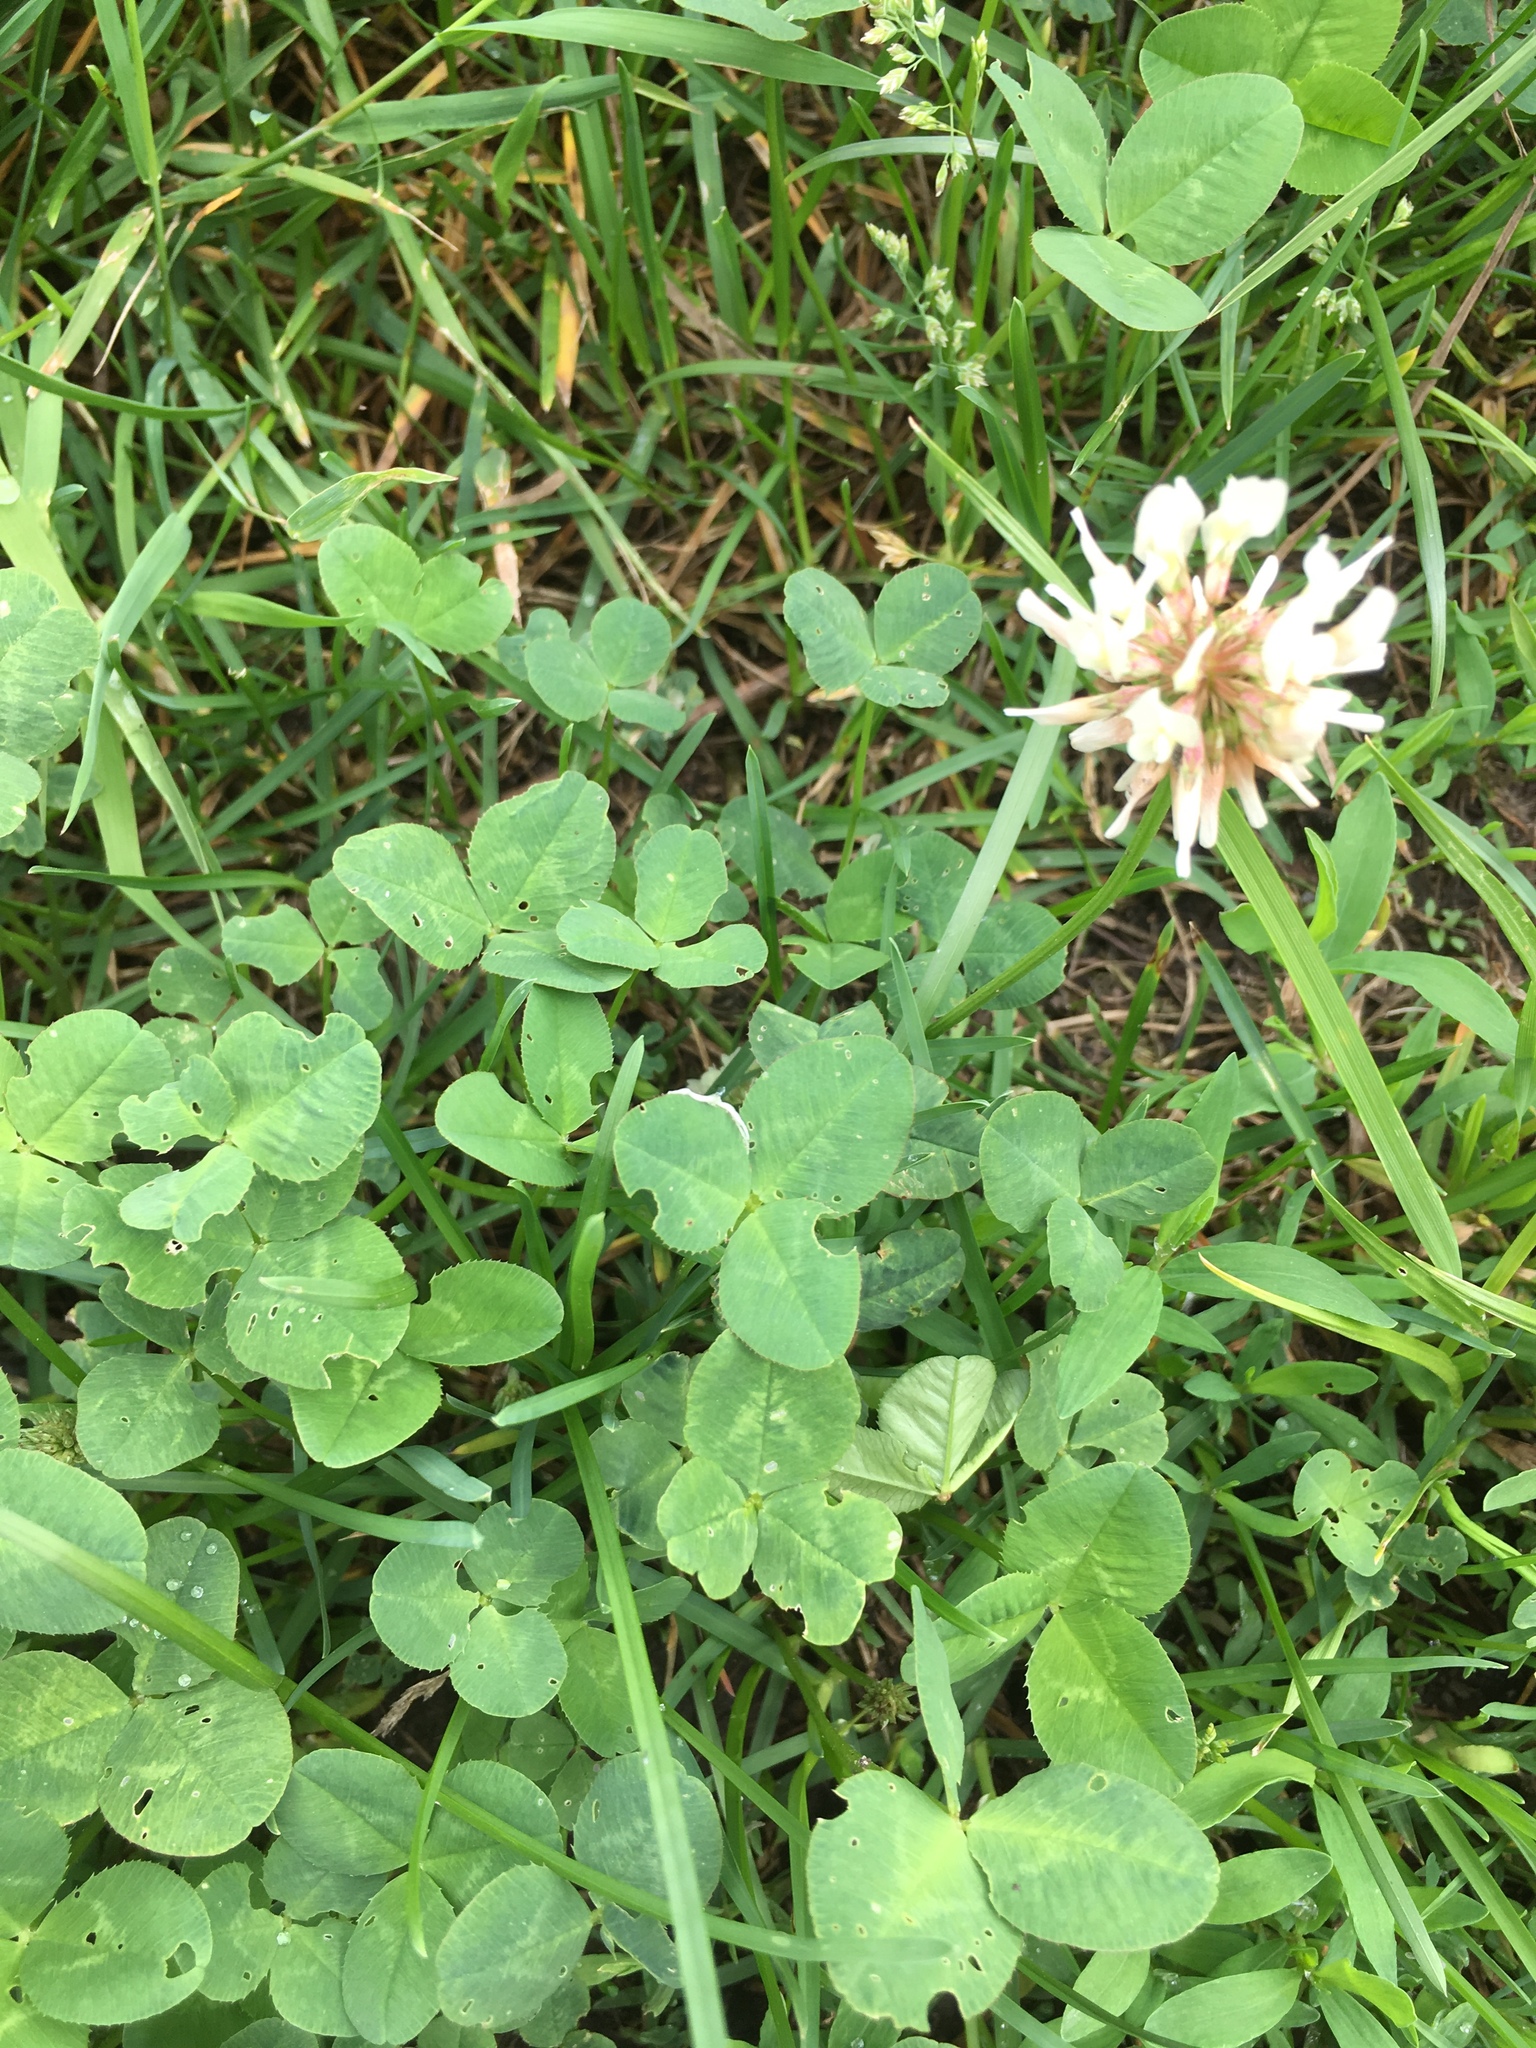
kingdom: Plantae
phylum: Tracheophyta
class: Magnoliopsida
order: Fabales
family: Fabaceae
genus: Trifolium
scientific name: Trifolium repens
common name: White clover
